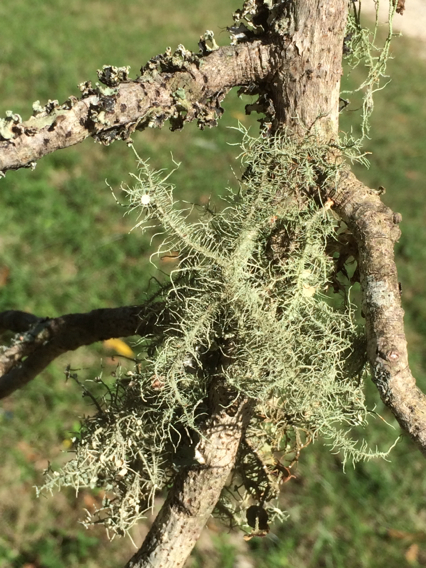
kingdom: Fungi
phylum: Ascomycota
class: Lecanoromycetes
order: Lecanorales
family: Parmeliaceae
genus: Usnea
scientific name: Usnea strigosa
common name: Bushy beard lichen
